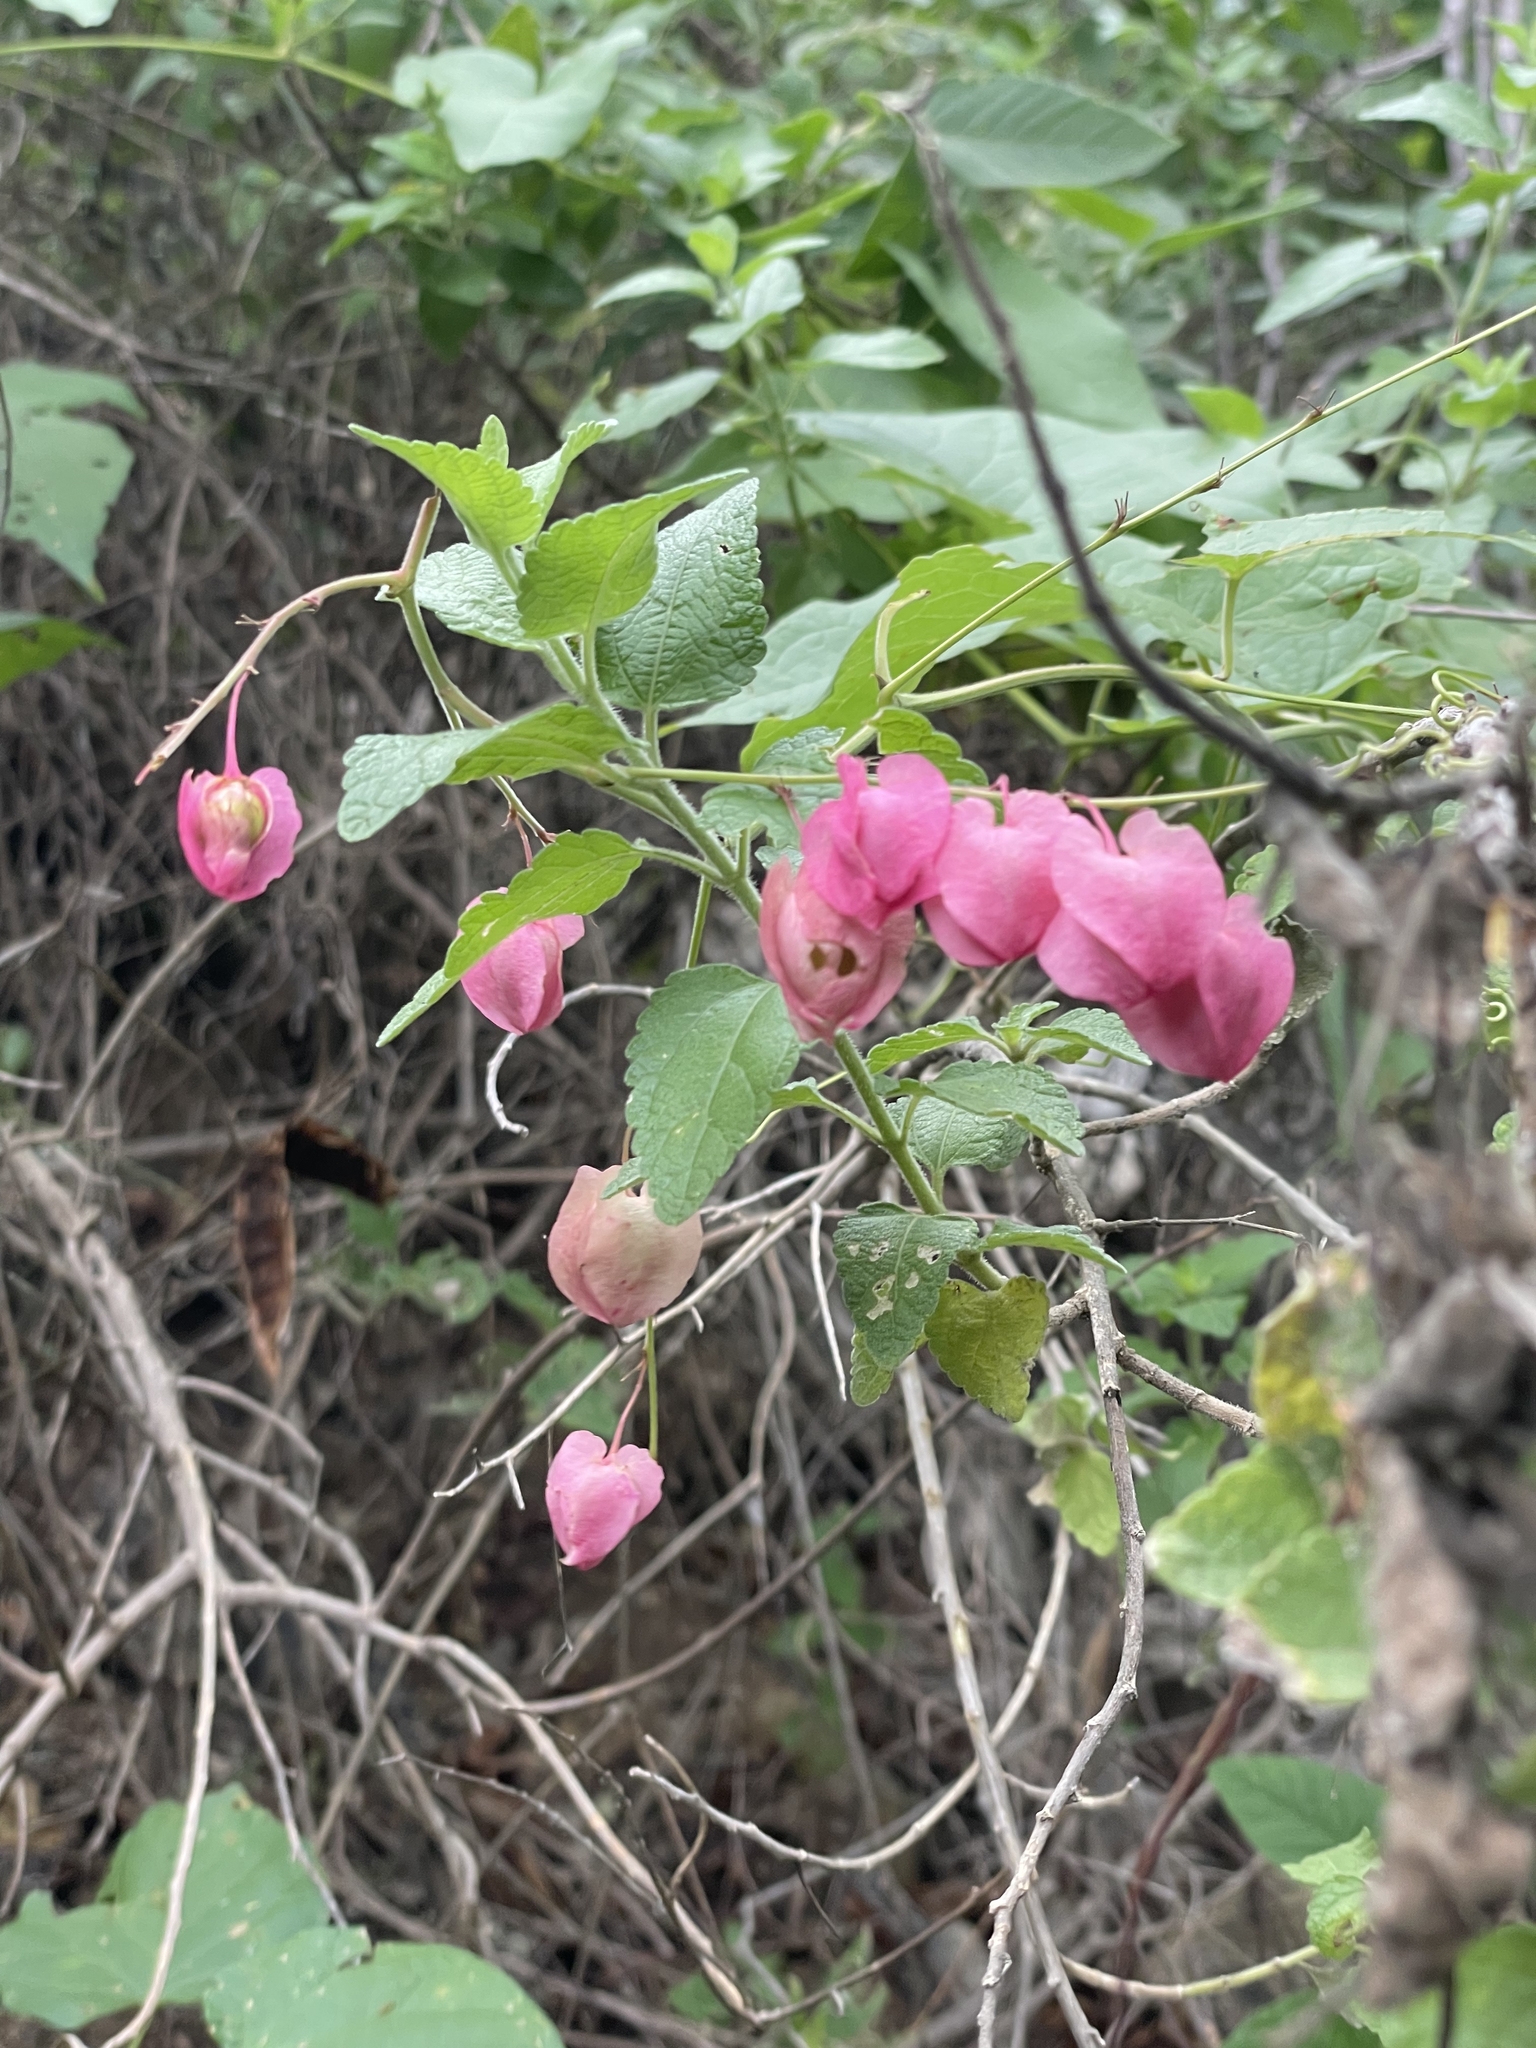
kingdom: Plantae
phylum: Tracheophyta
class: Magnoliopsida
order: Caryophyllales
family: Polygonaceae
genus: Antigonon
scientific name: Antigonon leptopus
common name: Coral vine
